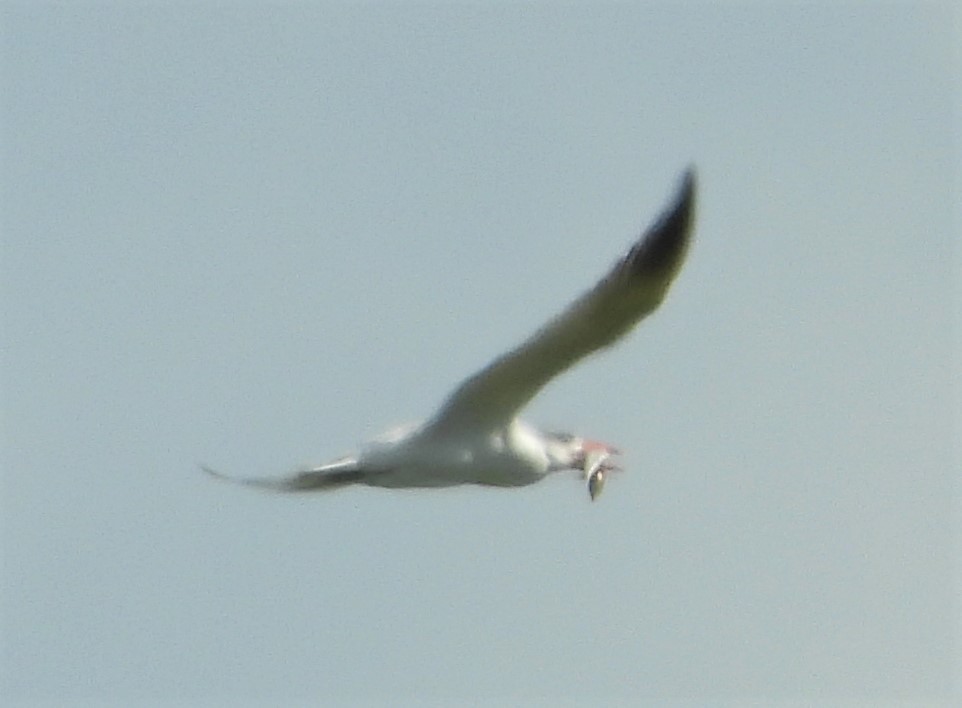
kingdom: Animalia
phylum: Chordata
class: Aves
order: Charadriiformes
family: Laridae
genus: Hydroprogne
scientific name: Hydroprogne caspia
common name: Caspian tern
